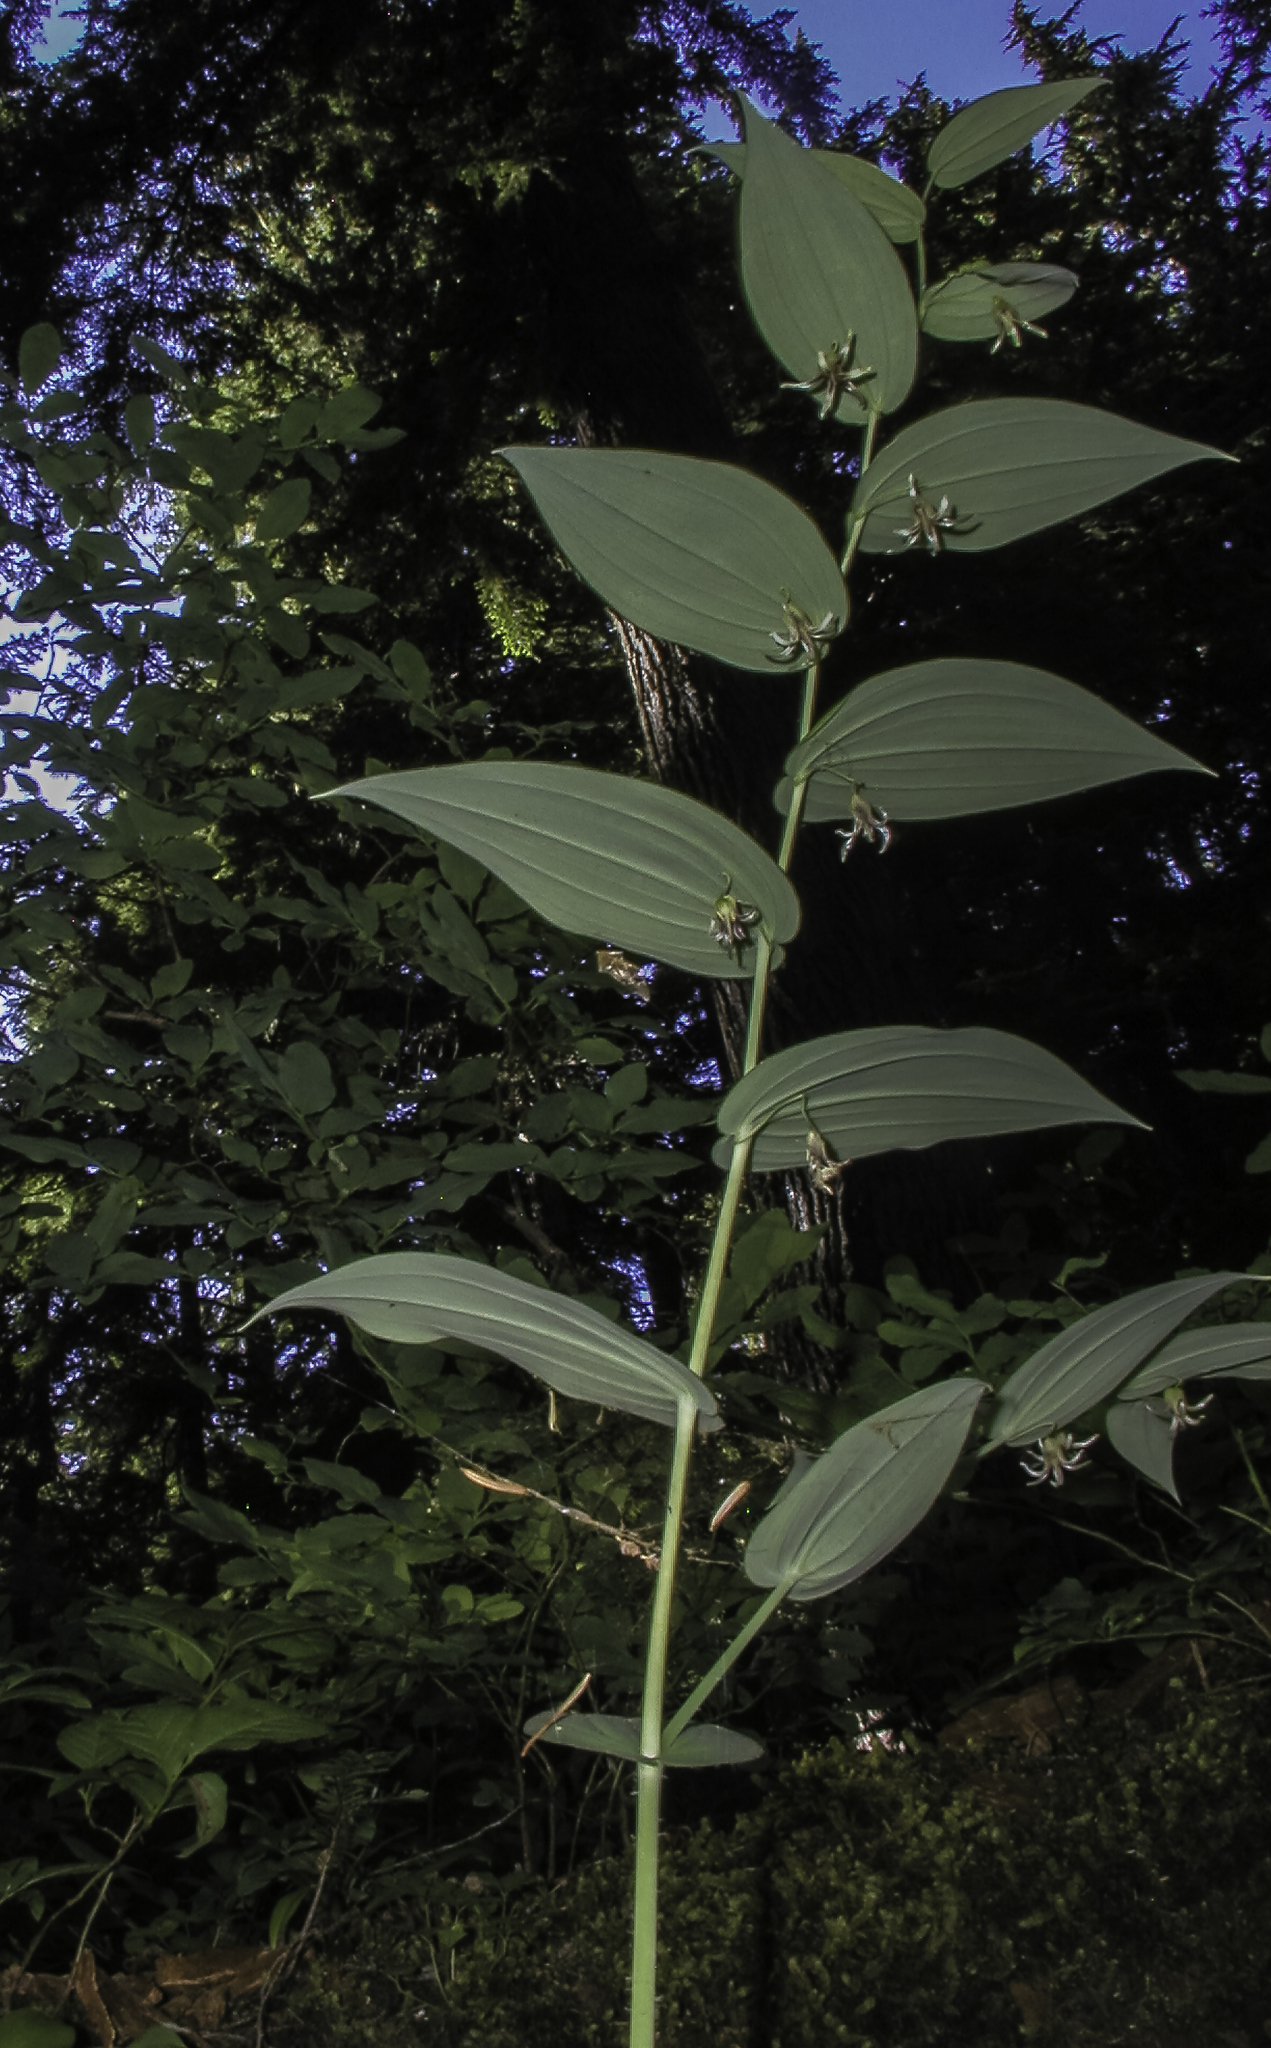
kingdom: Plantae
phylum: Tracheophyta
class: Liliopsida
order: Liliales
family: Liliaceae
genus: Streptopus
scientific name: Streptopus amplexifolius
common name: Clasp twisted stalk
